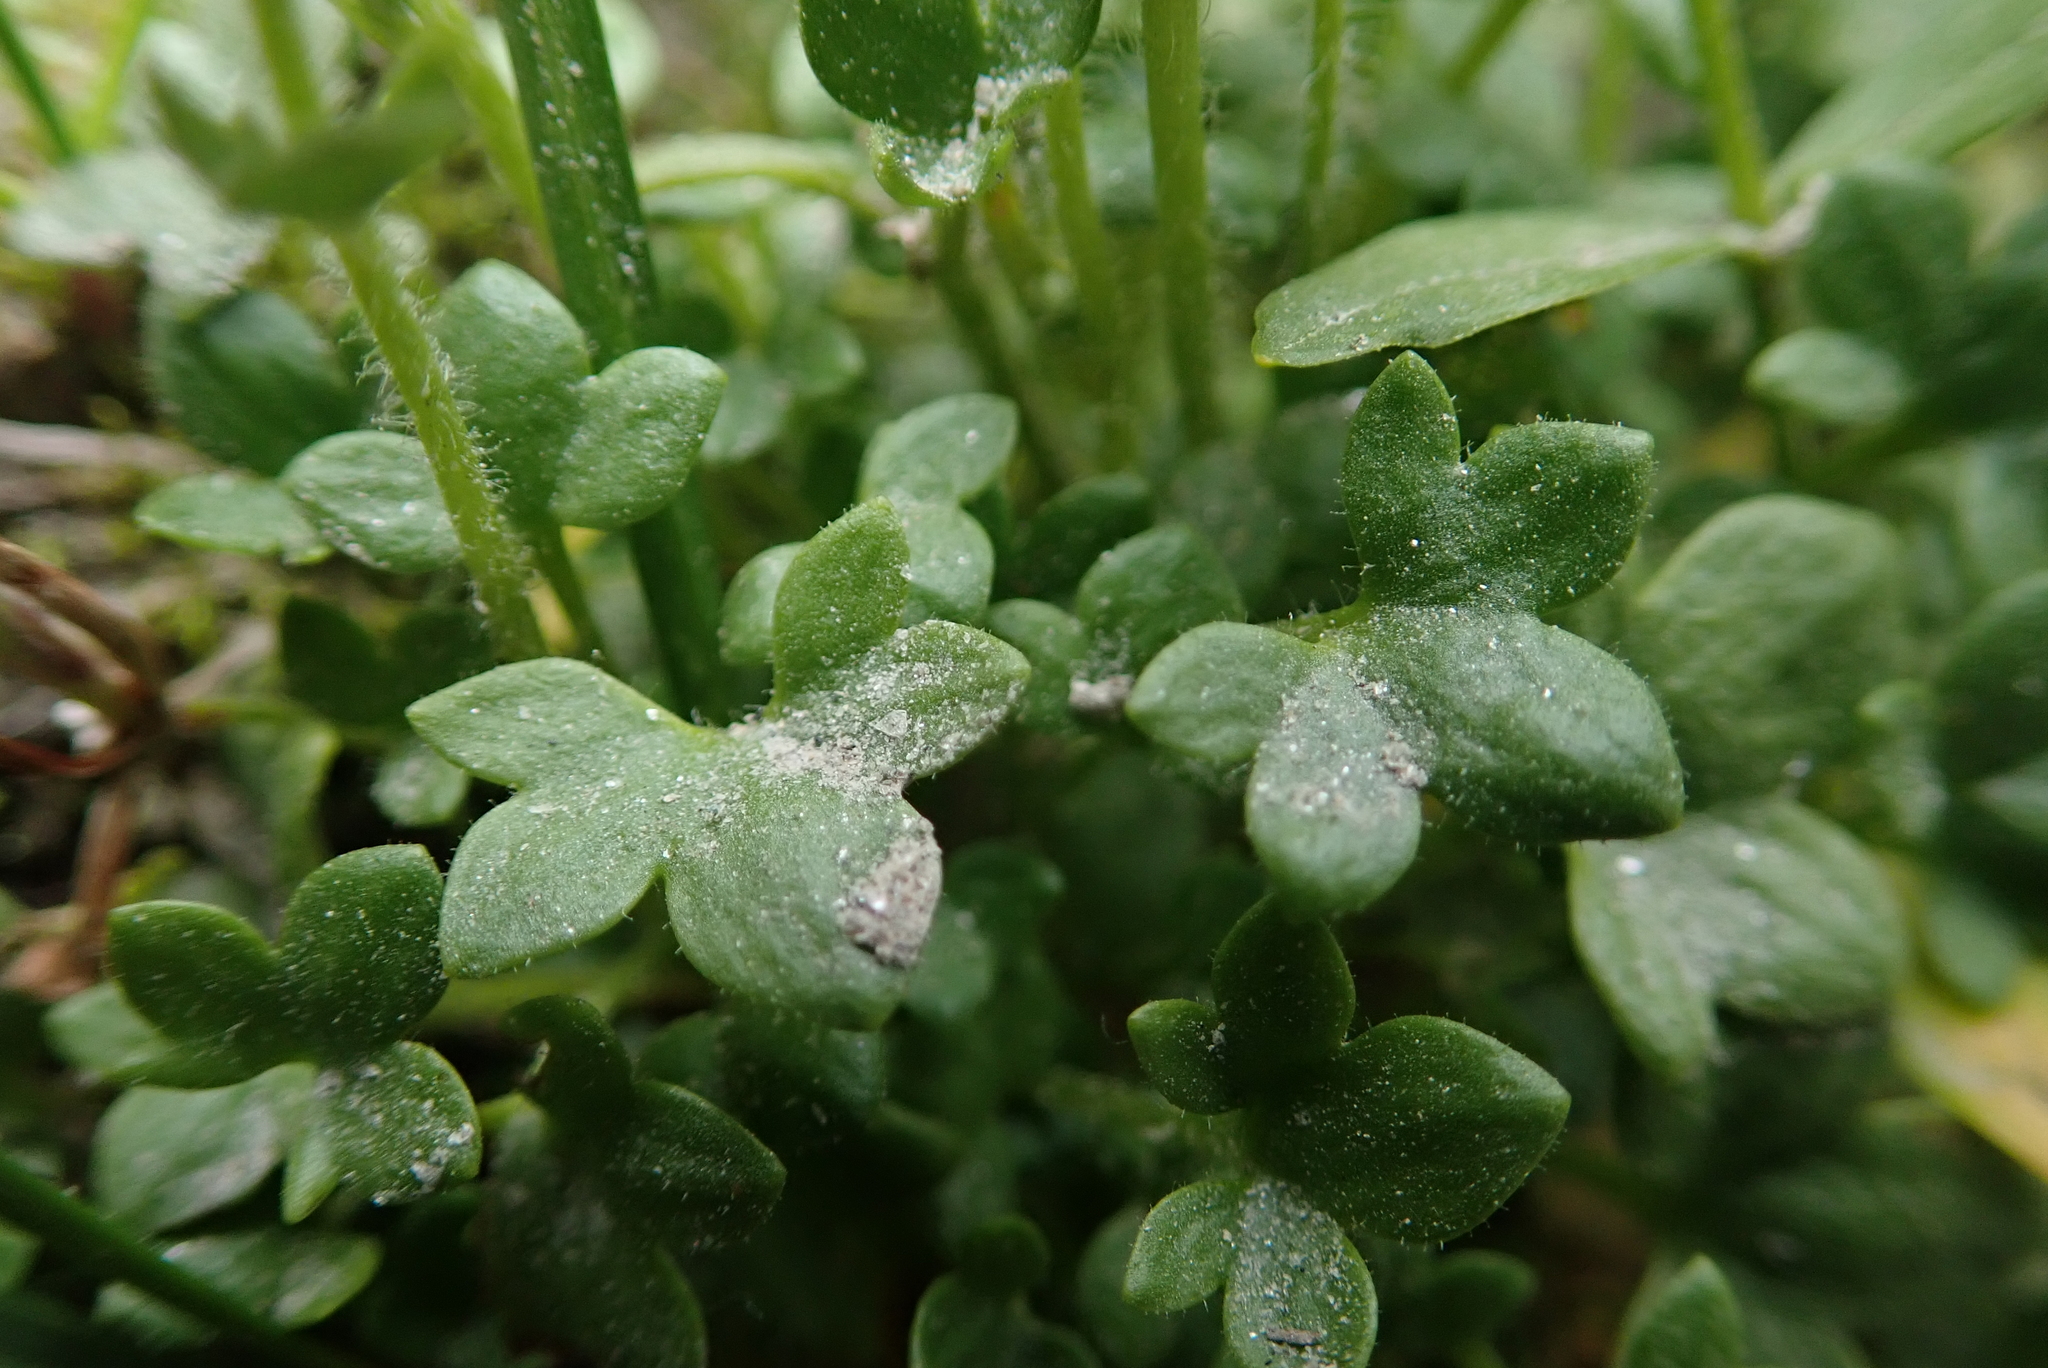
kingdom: Plantae
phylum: Tracheophyta
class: Magnoliopsida
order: Saxifragales
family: Saxifragaceae
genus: Saxifraga
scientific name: Saxifraga rivularis
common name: Highland saxifrage
